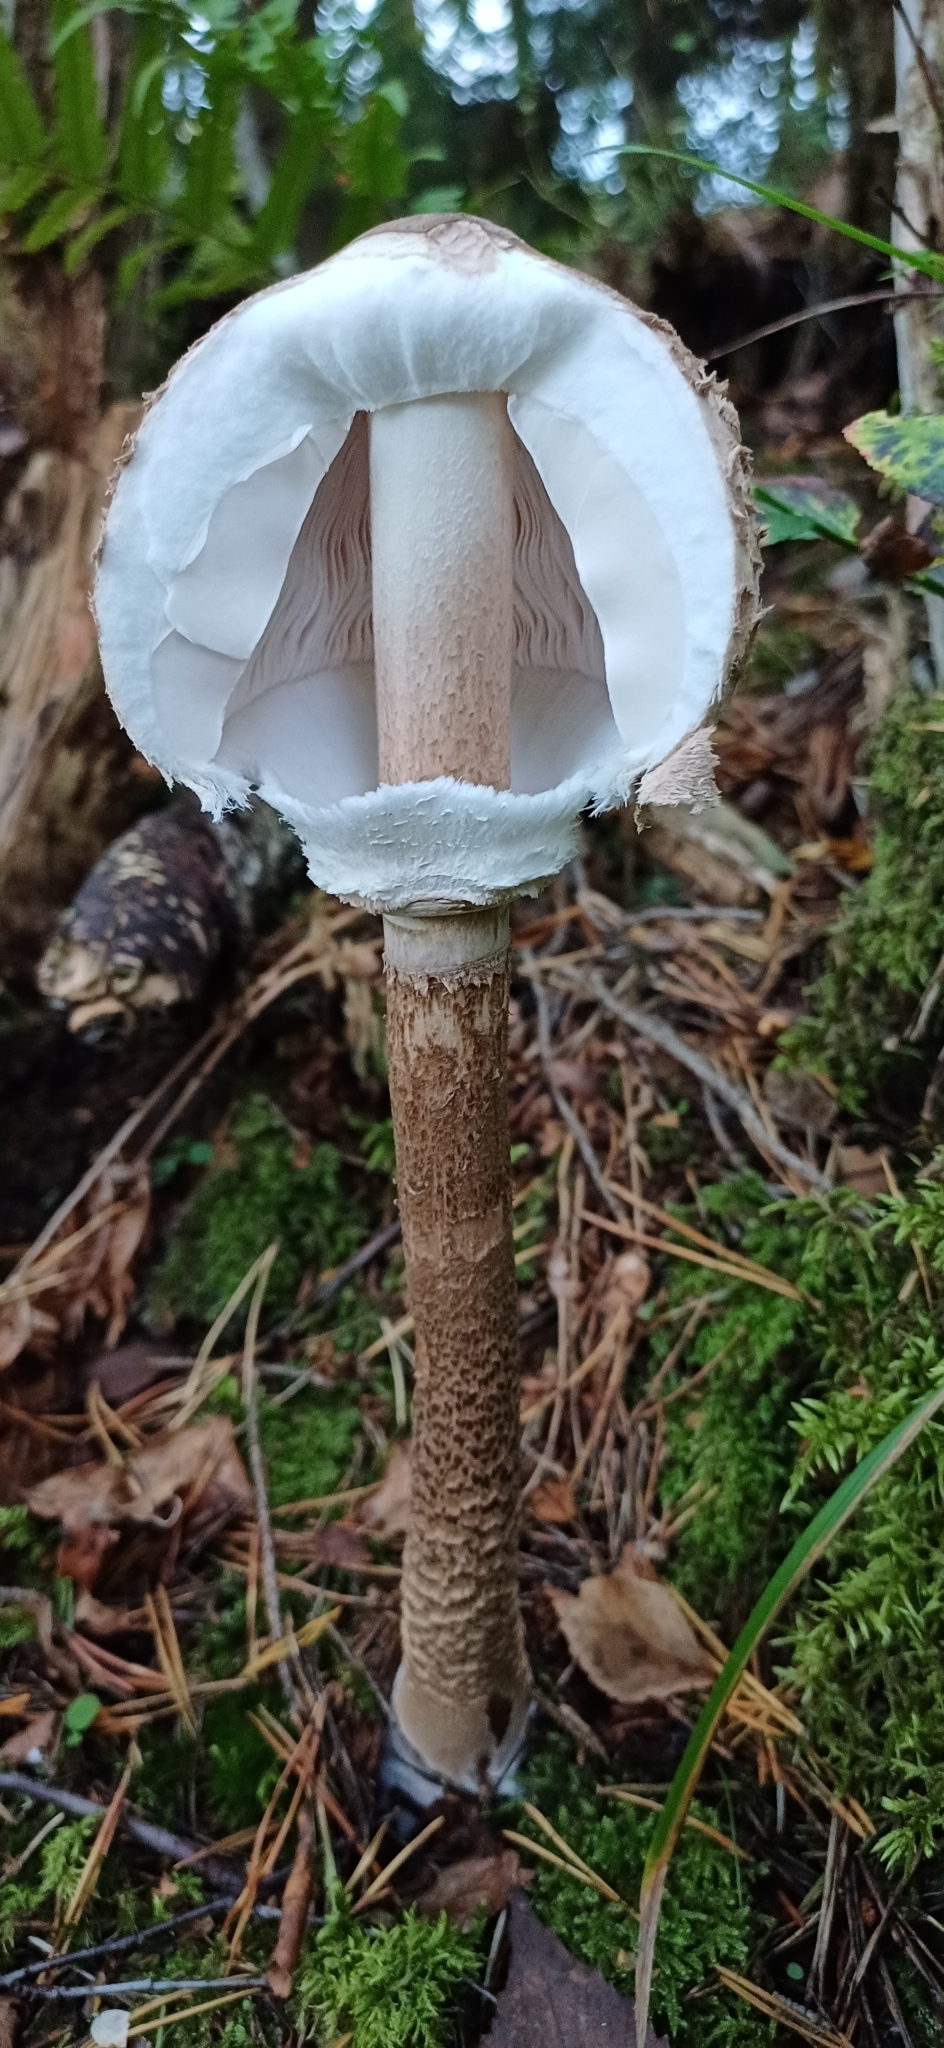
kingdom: Fungi
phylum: Basidiomycota
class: Agaricomycetes
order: Agaricales
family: Agaricaceae
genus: Macrolepiota
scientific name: Macrolepiota procera
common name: Parasol
